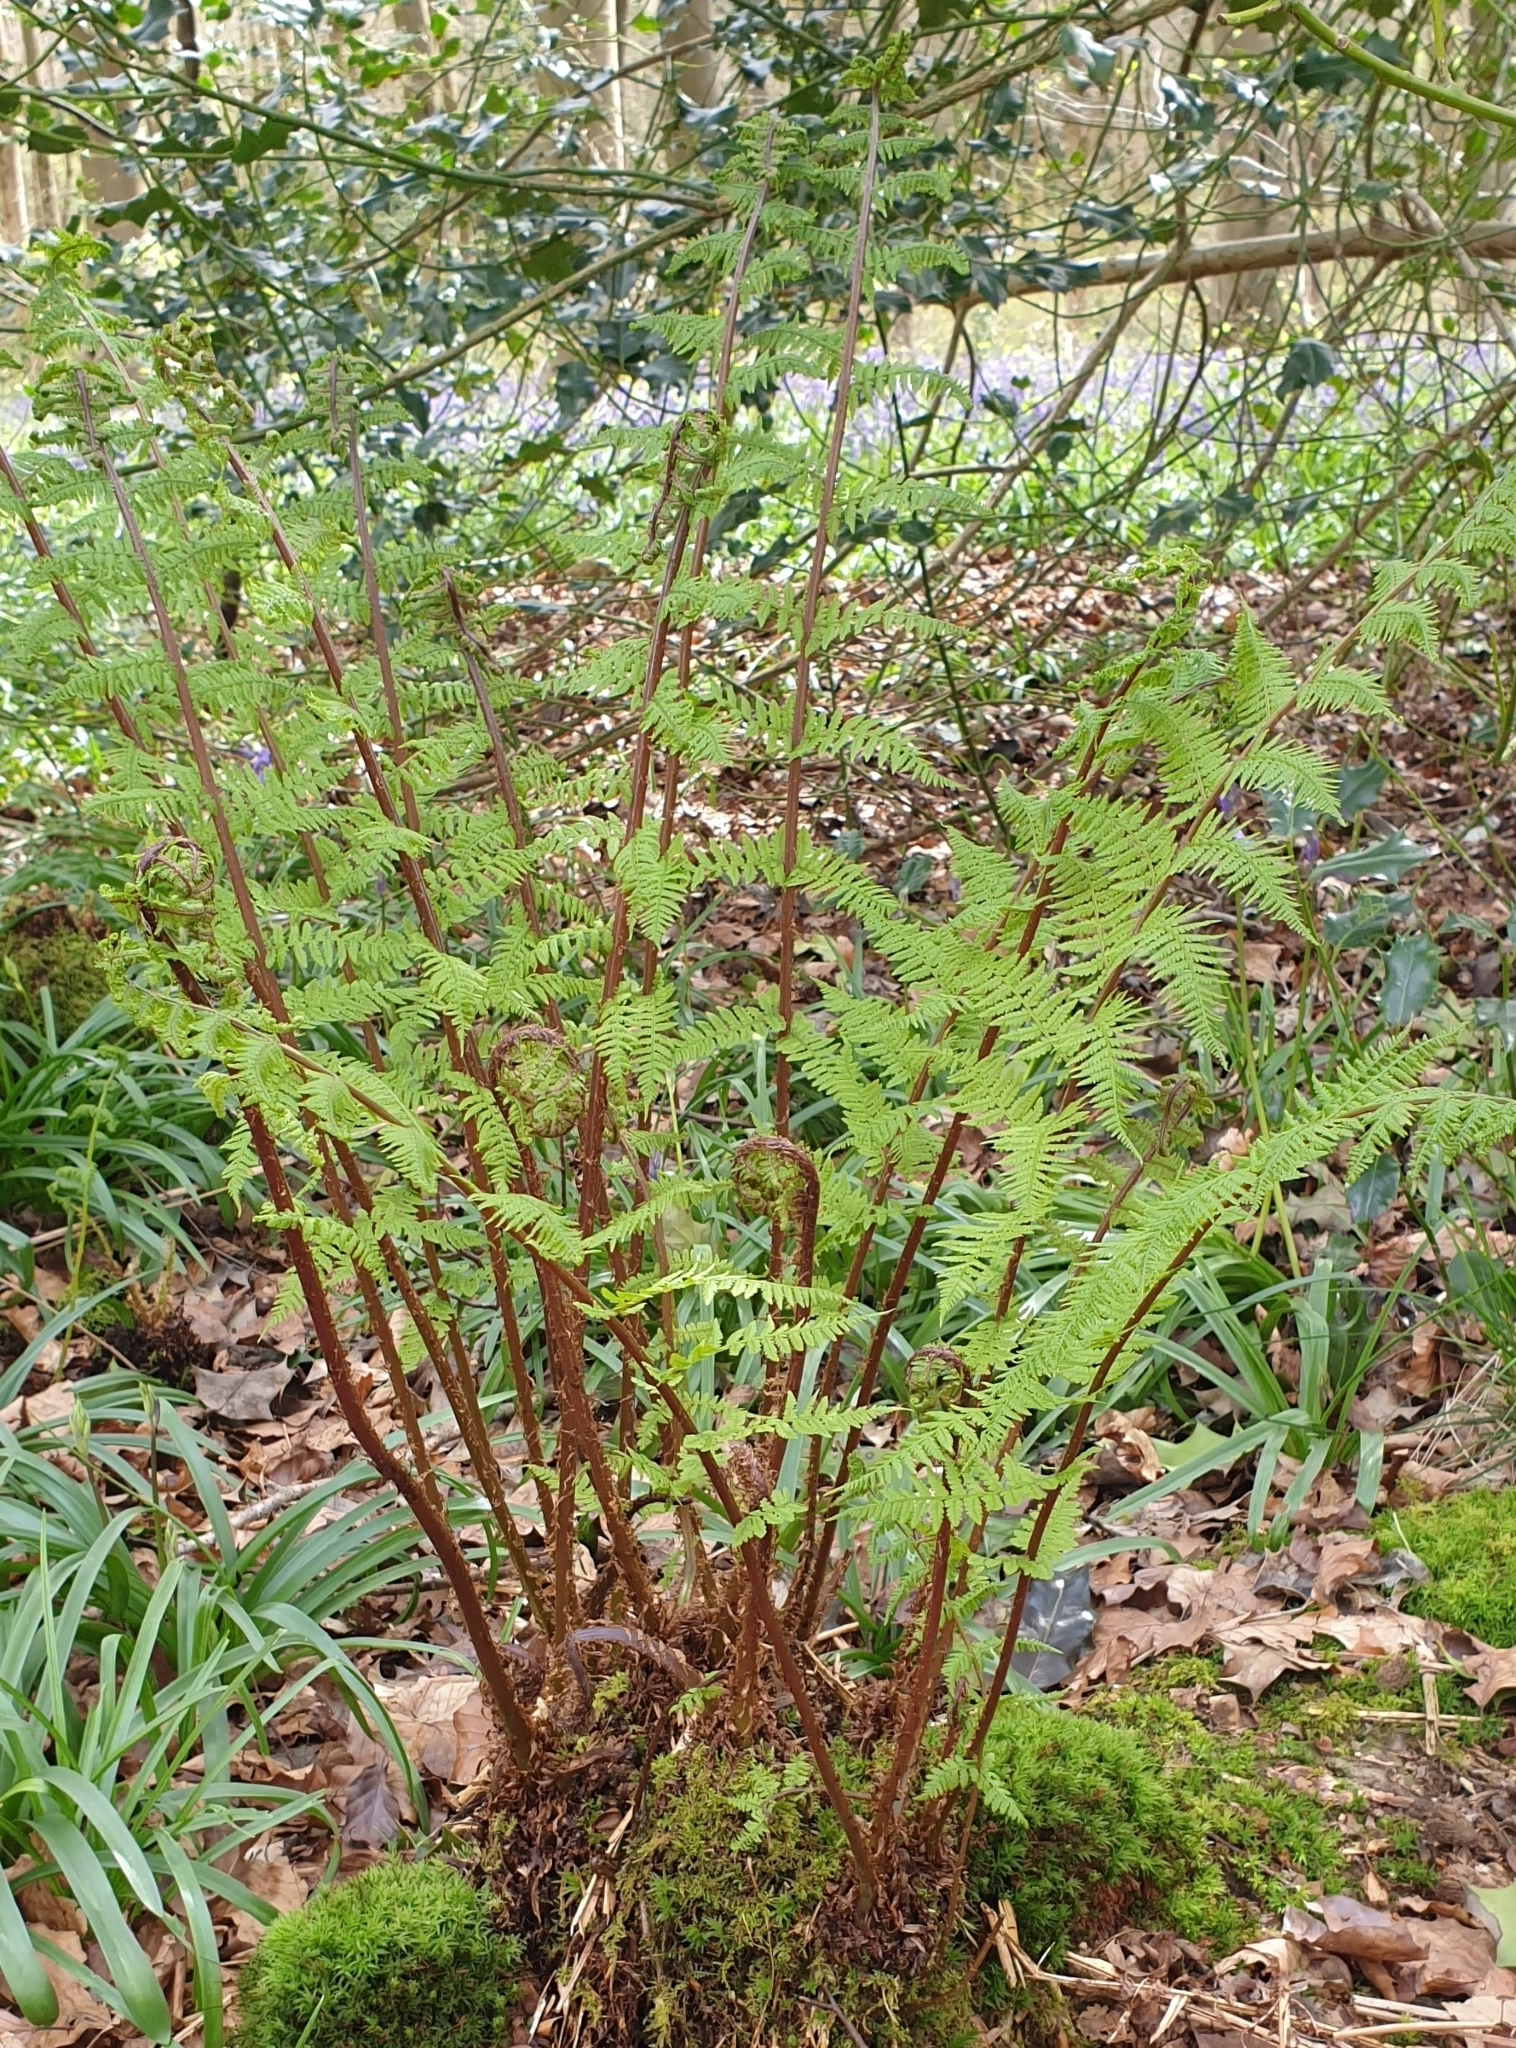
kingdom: Plantae
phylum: Tracheophyta
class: Polypodiopsida
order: Polypodiales
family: Athyriaceae
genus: Athyrium
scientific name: Athyrium filix-femina
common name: Lady fern
